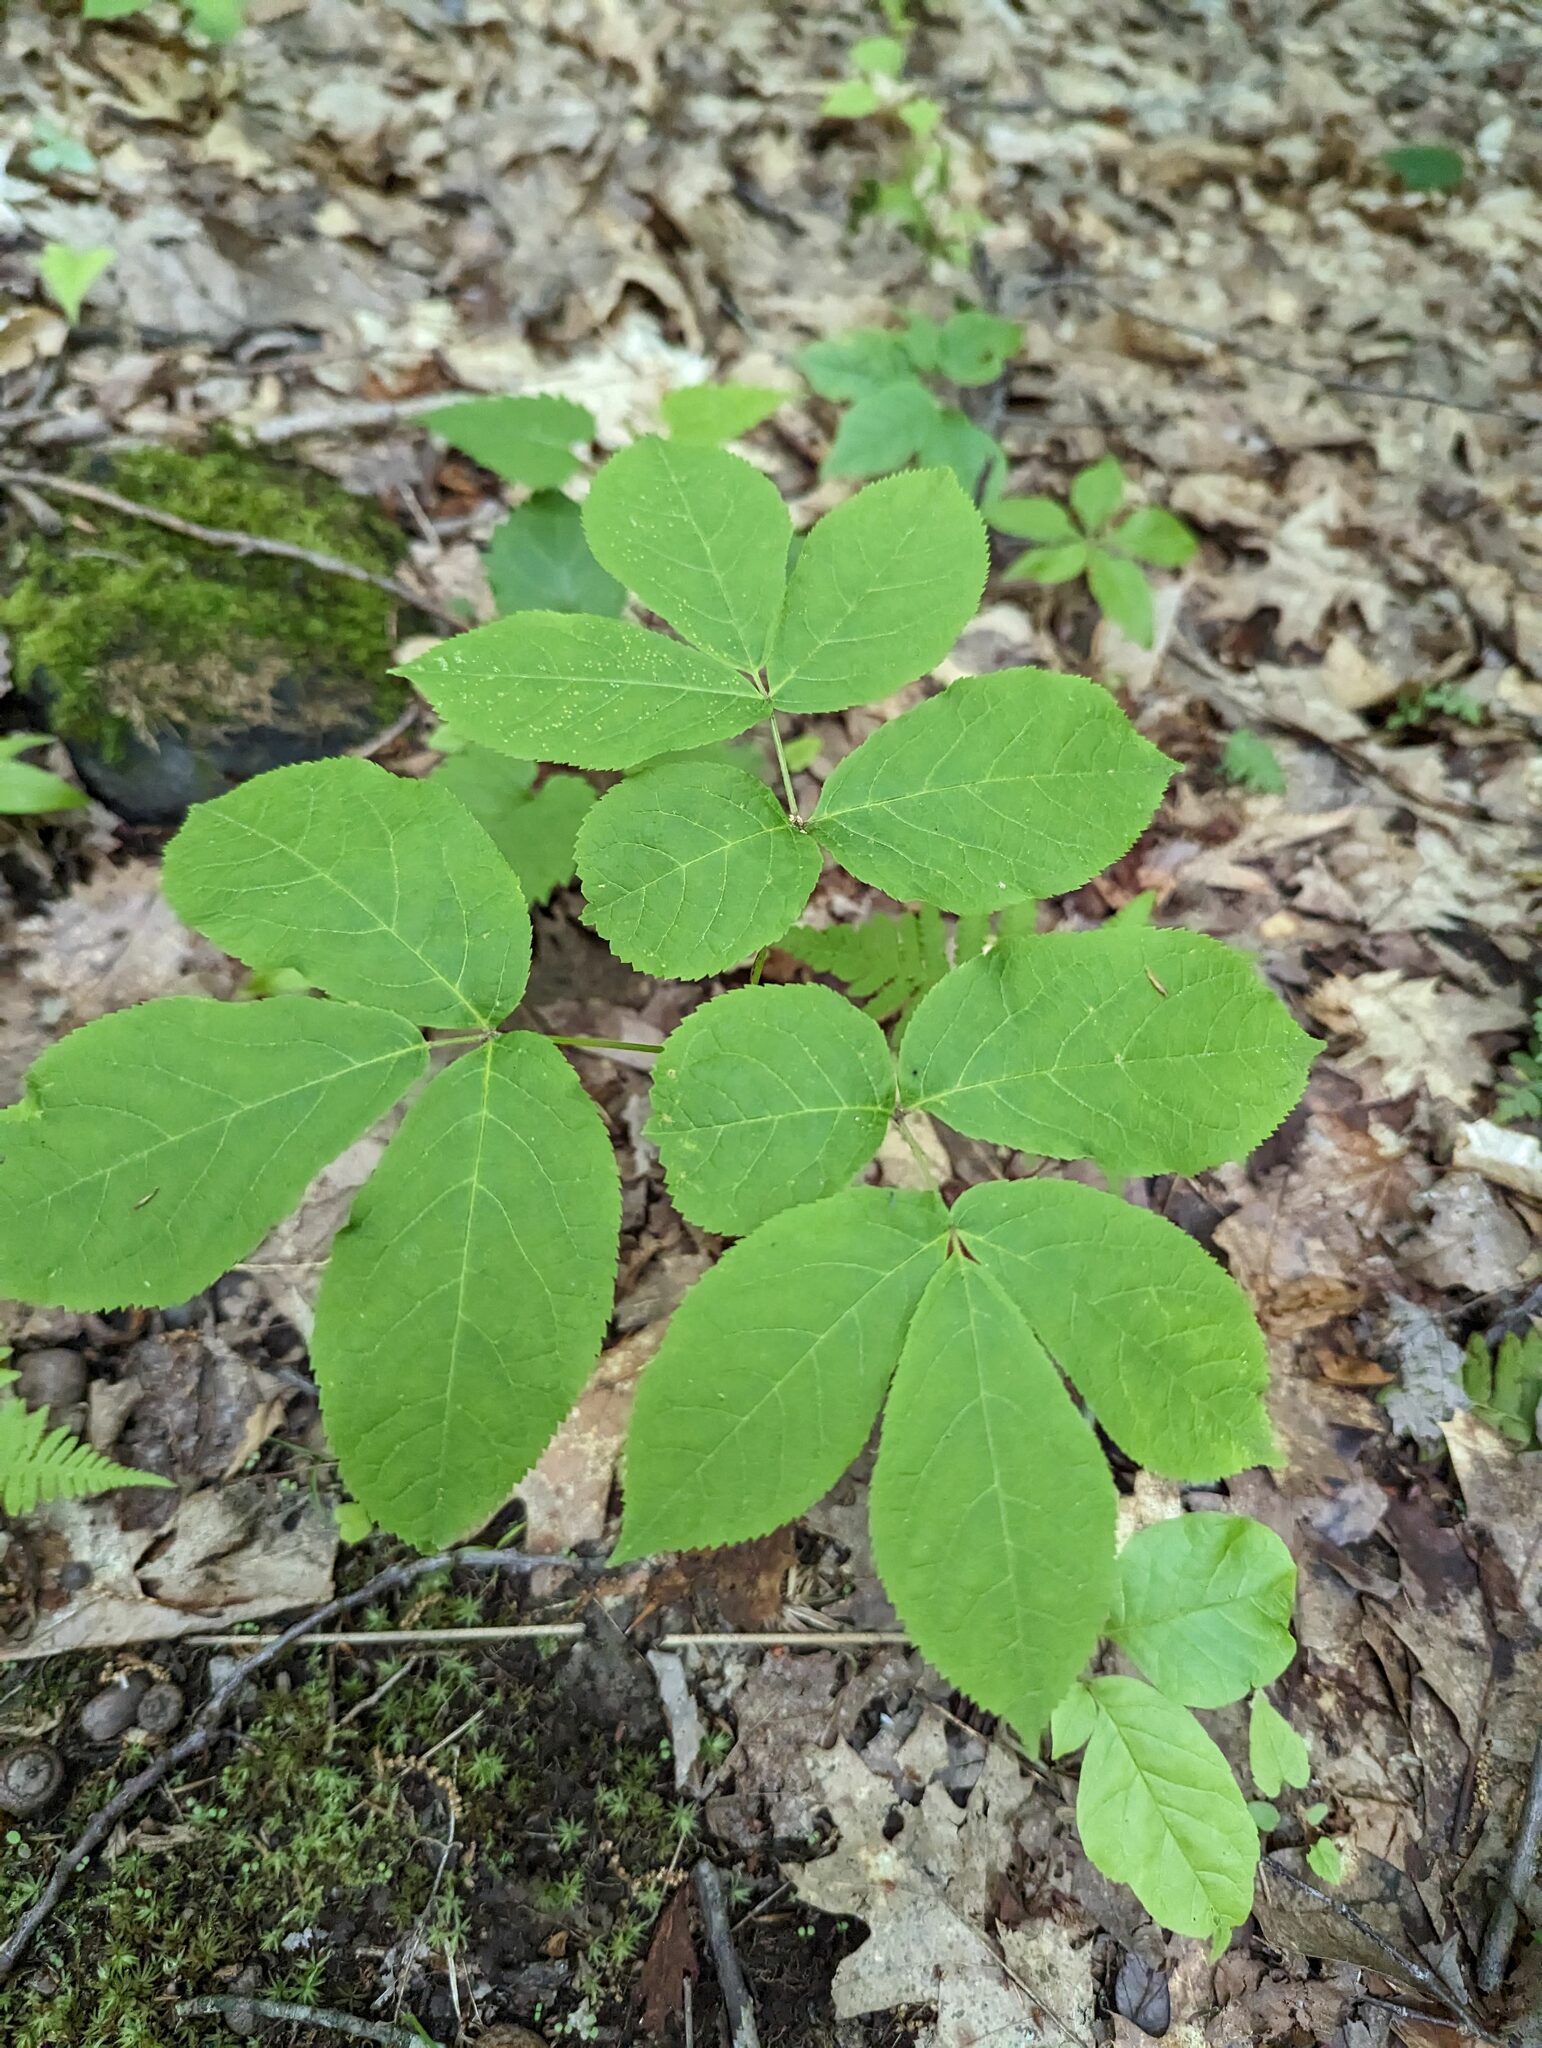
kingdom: Plantae
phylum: Tracheophyta
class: Magnoliopsida
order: Apiales
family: Araliaceae
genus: Aralia
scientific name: Aralia nudicaulis
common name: Wild sarsaparilla
